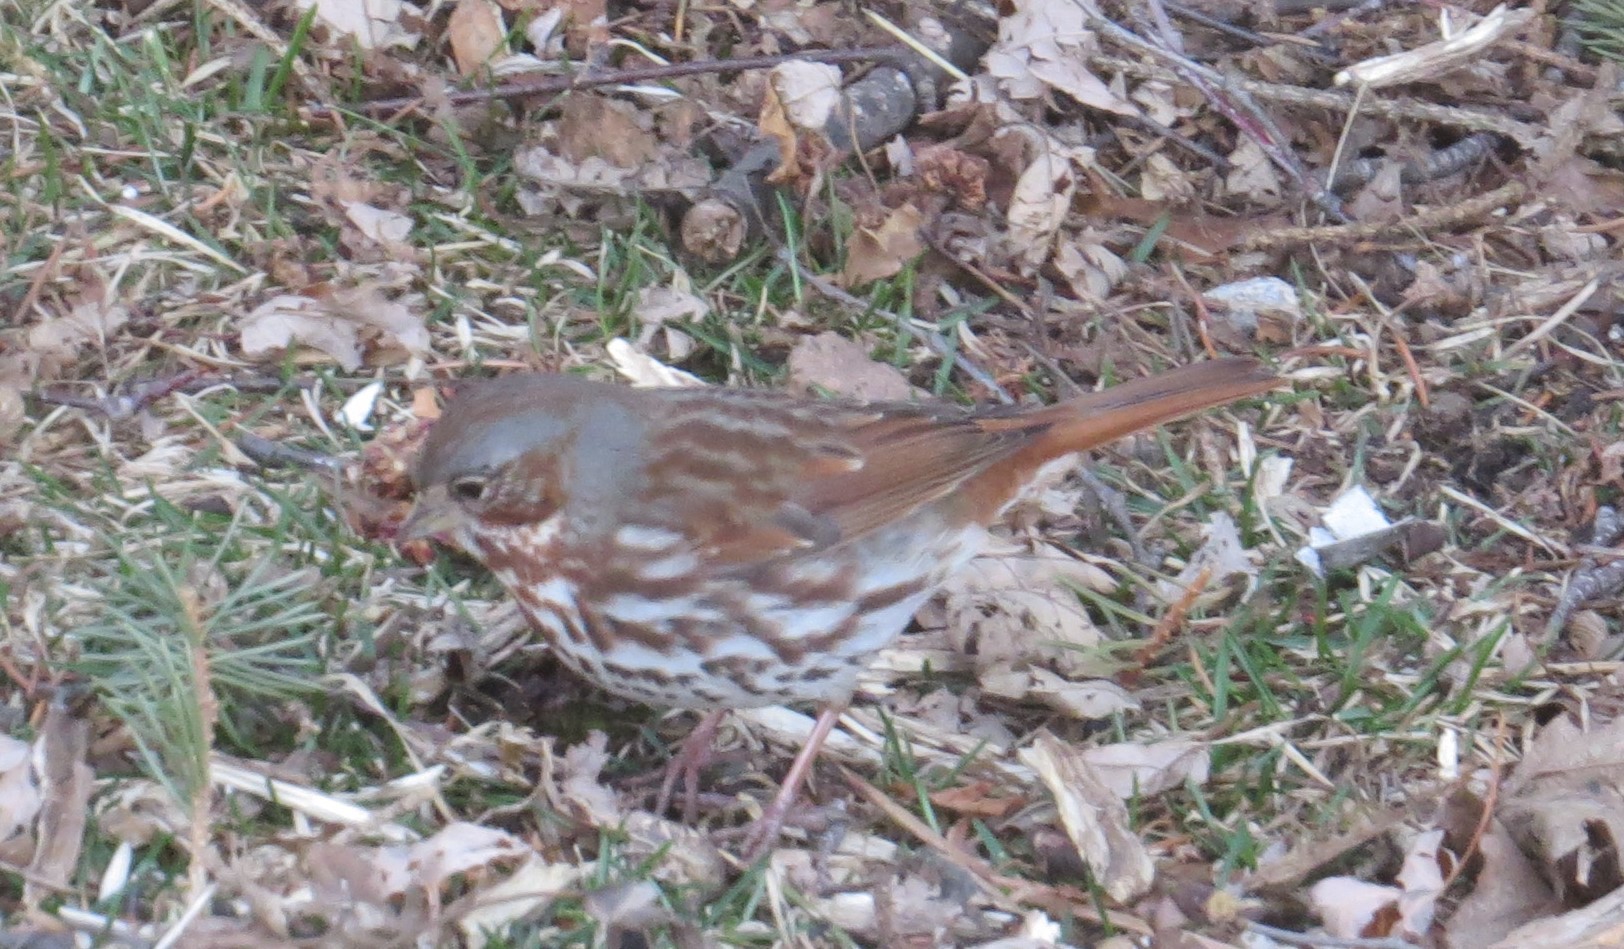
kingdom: Animalia
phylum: Chordata
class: Aves
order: Passeriformes
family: Passerellidae
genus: Passerella
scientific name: Passerella iliaca
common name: Fox sparrow
